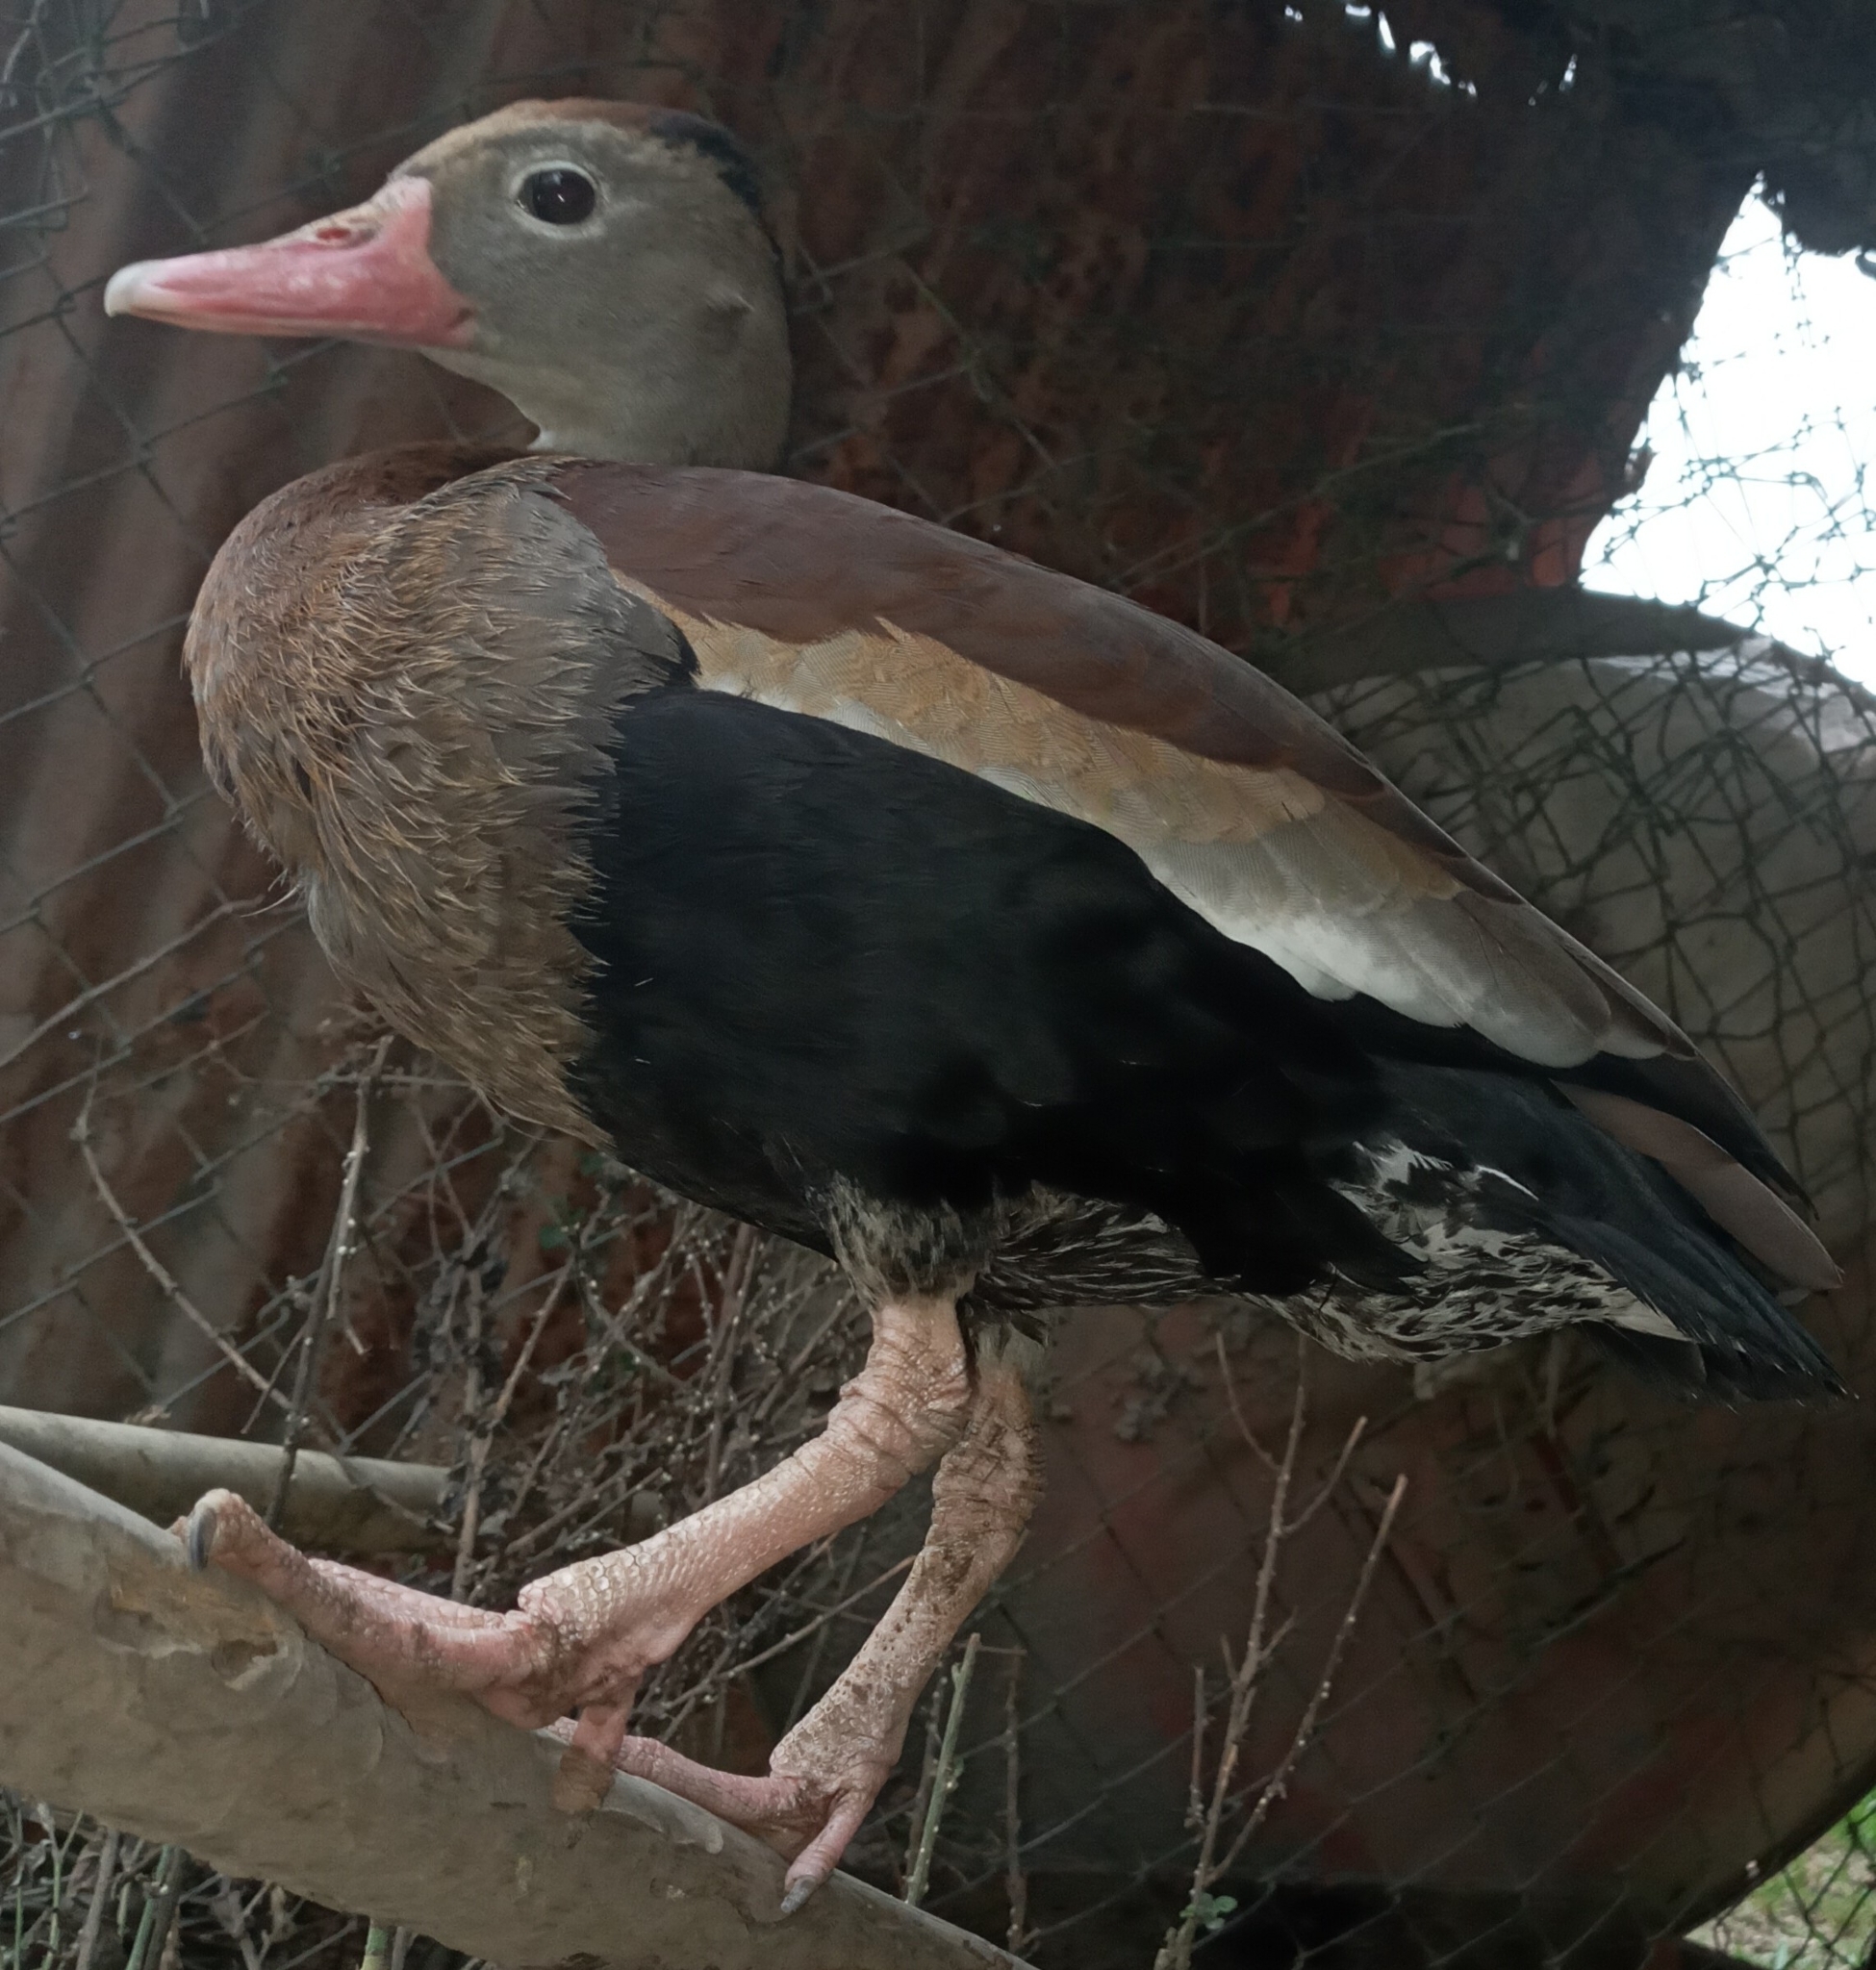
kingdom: Animalia
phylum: Chordata
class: Aves
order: Anseriformes
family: Anatidae
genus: Dendrocygna
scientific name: Dendrocygna autumnalis
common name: Black-bellied whistling duck
